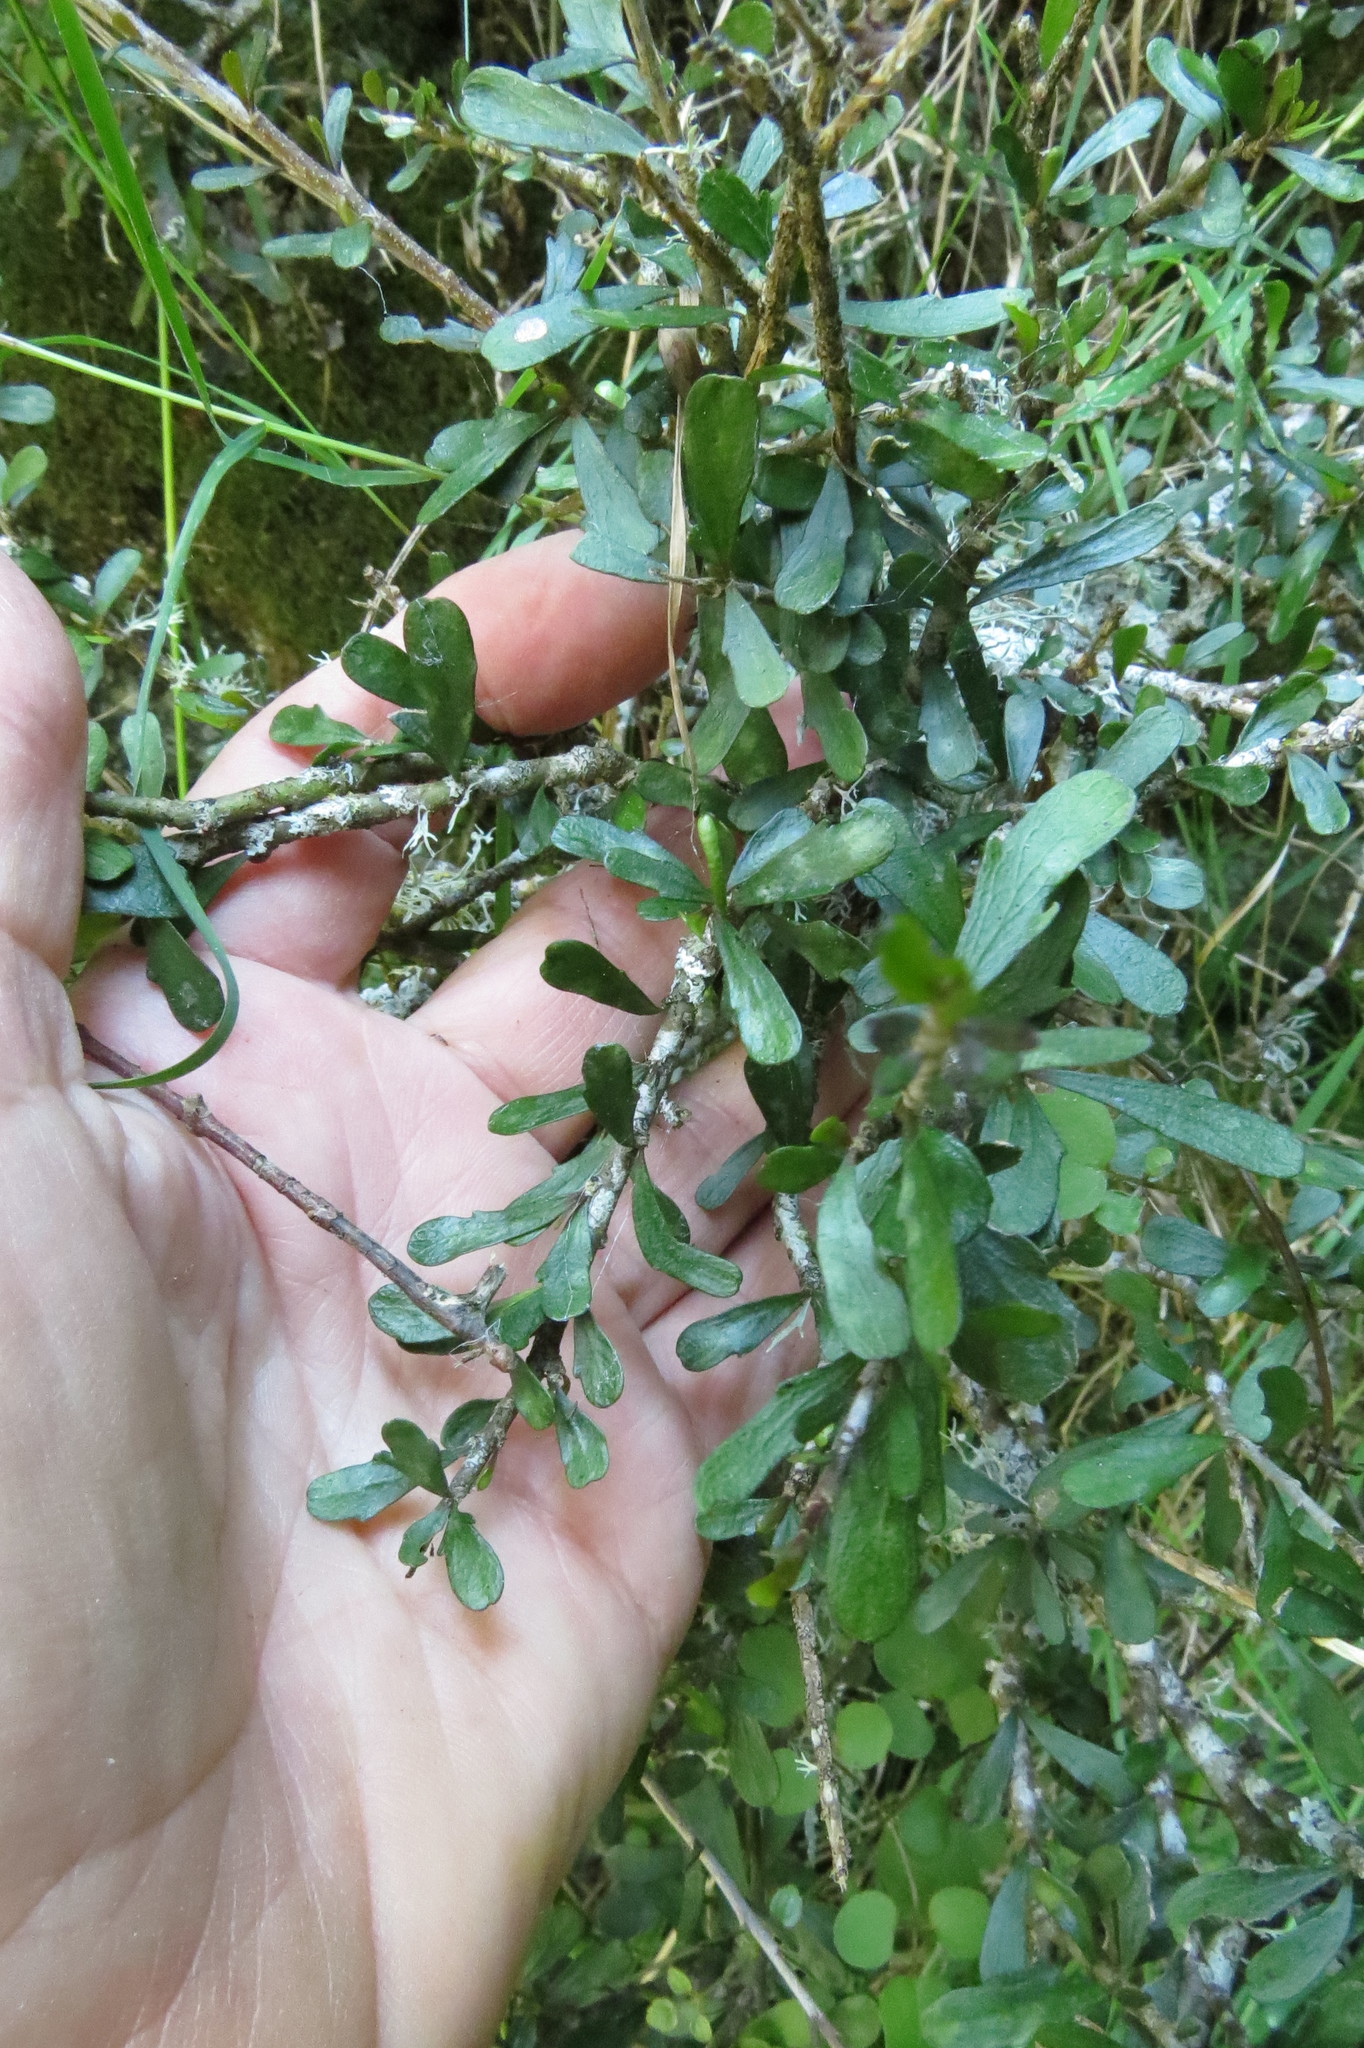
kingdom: Plantae
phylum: Tracheophyta
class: Magnoliopsida
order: Malpighiales
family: Violaceae
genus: Melicytus
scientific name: Melicytus alpinus
